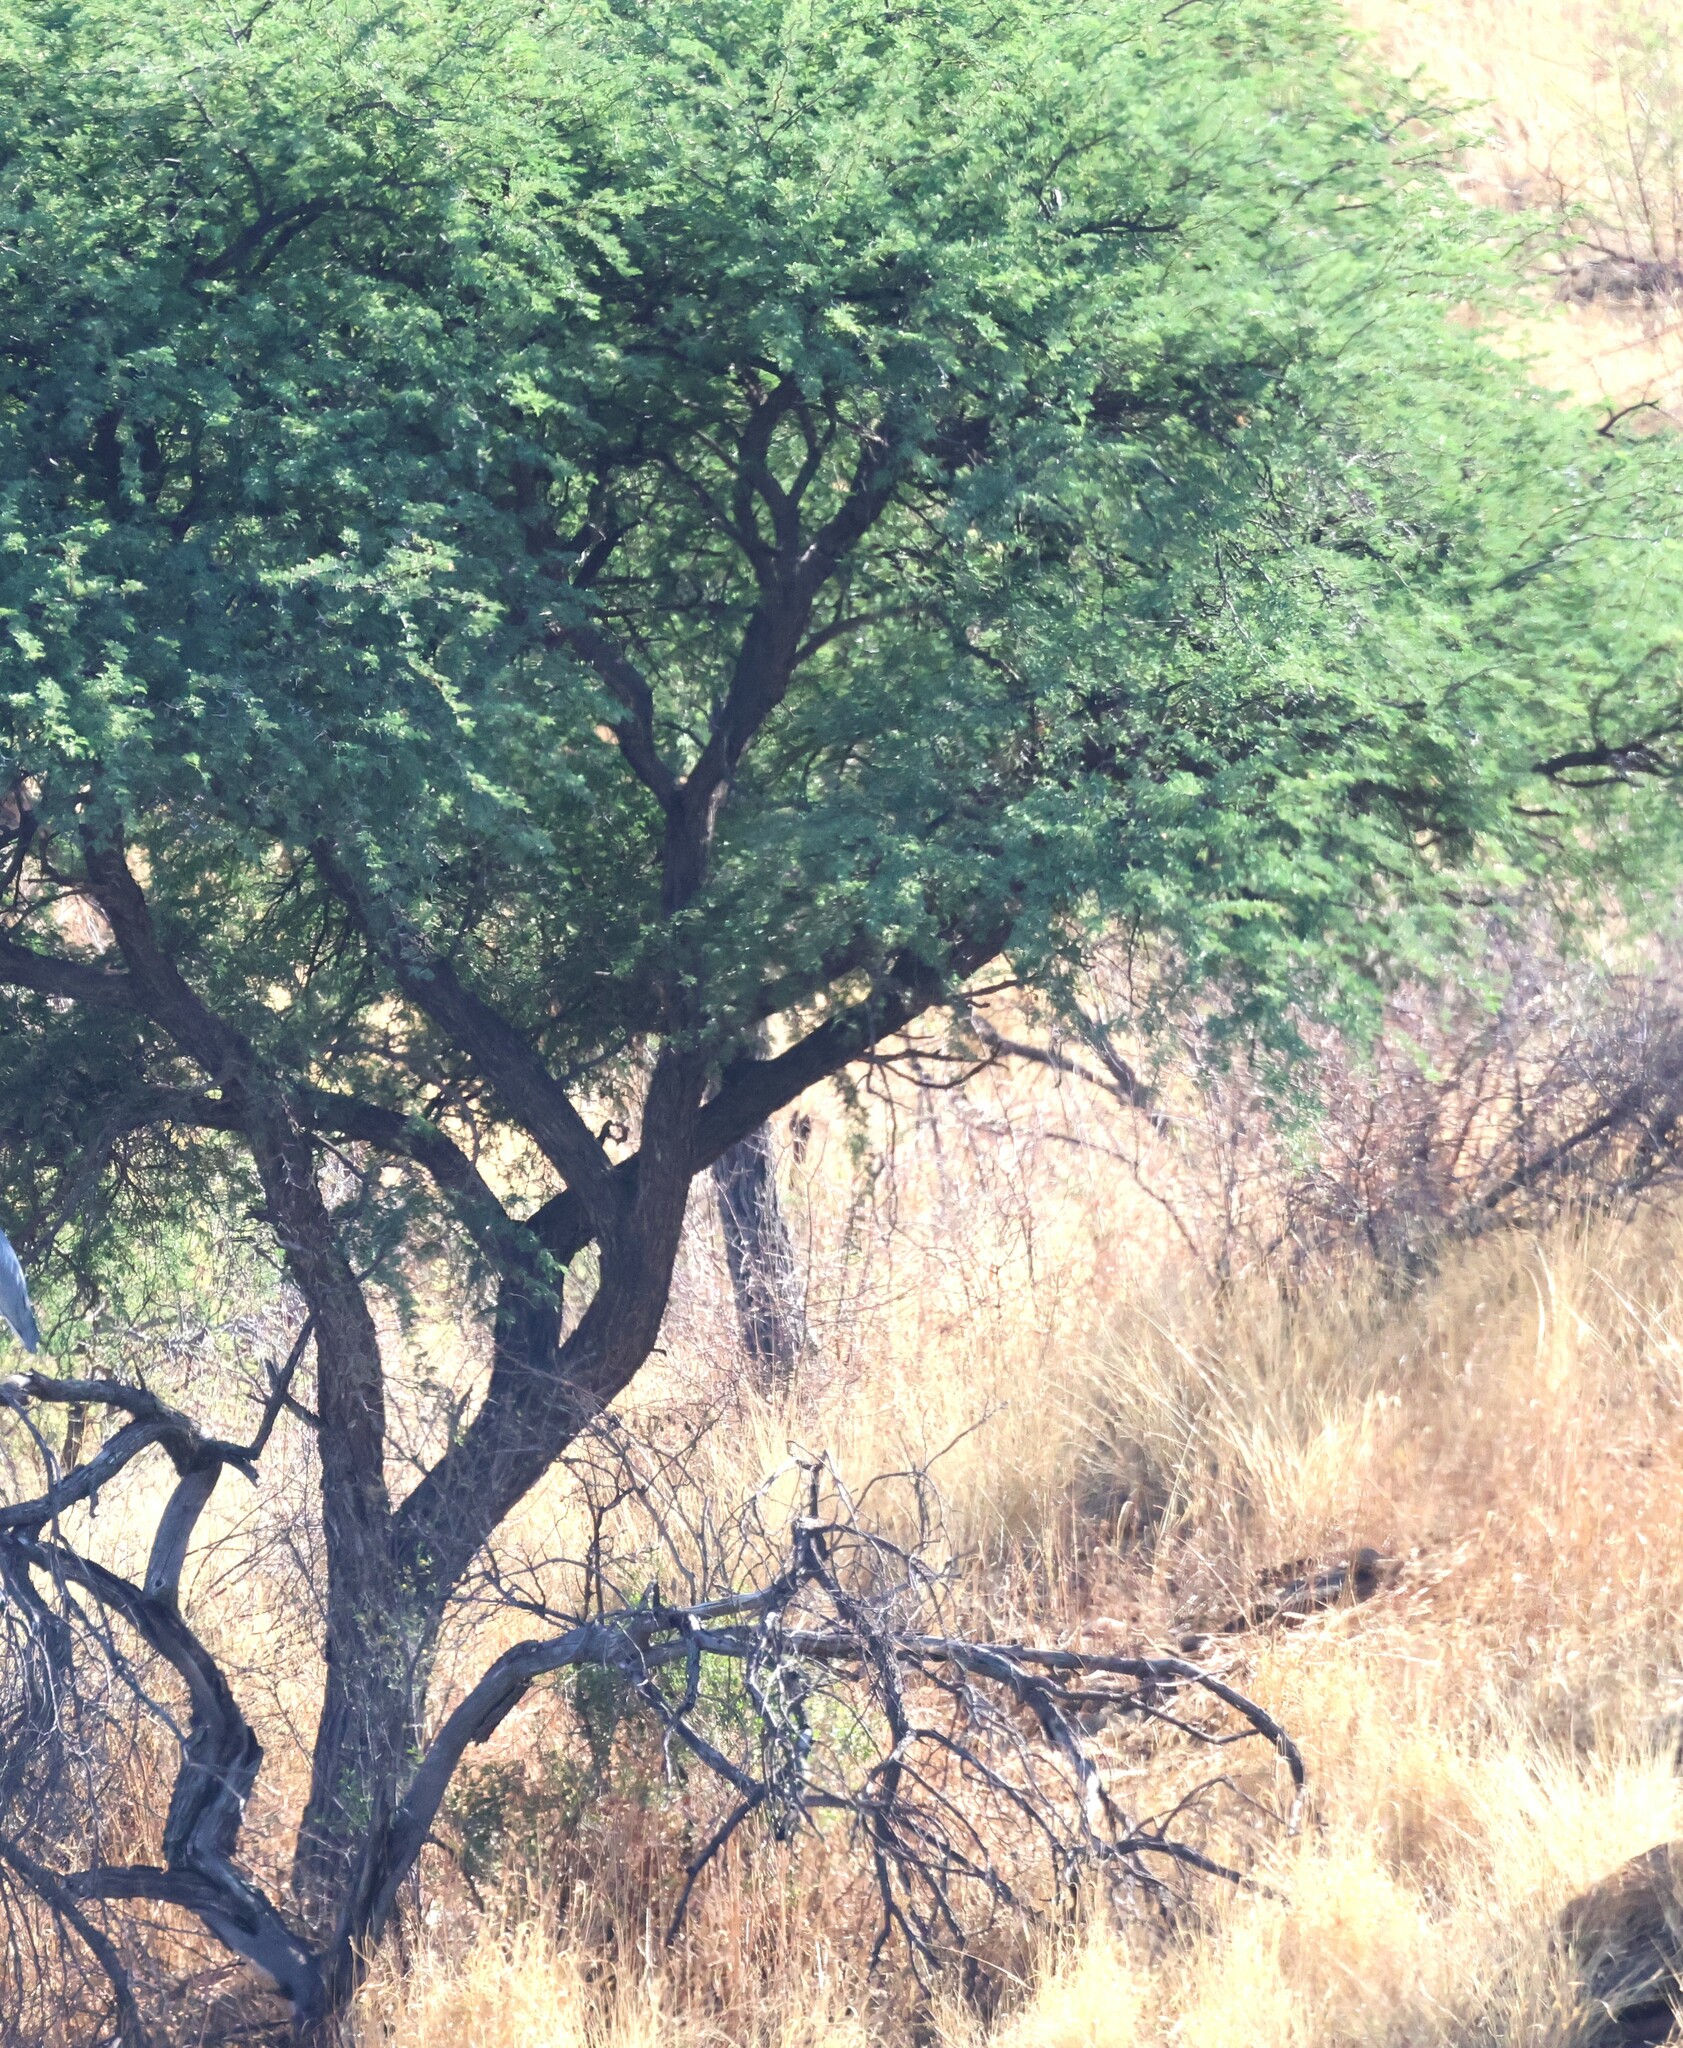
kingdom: Plantae
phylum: Tracheophyta
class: Magnoliopsida
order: Fabales
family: Fabaceae
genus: Vachellia
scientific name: Vachellia erioloba
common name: Camel thorn
